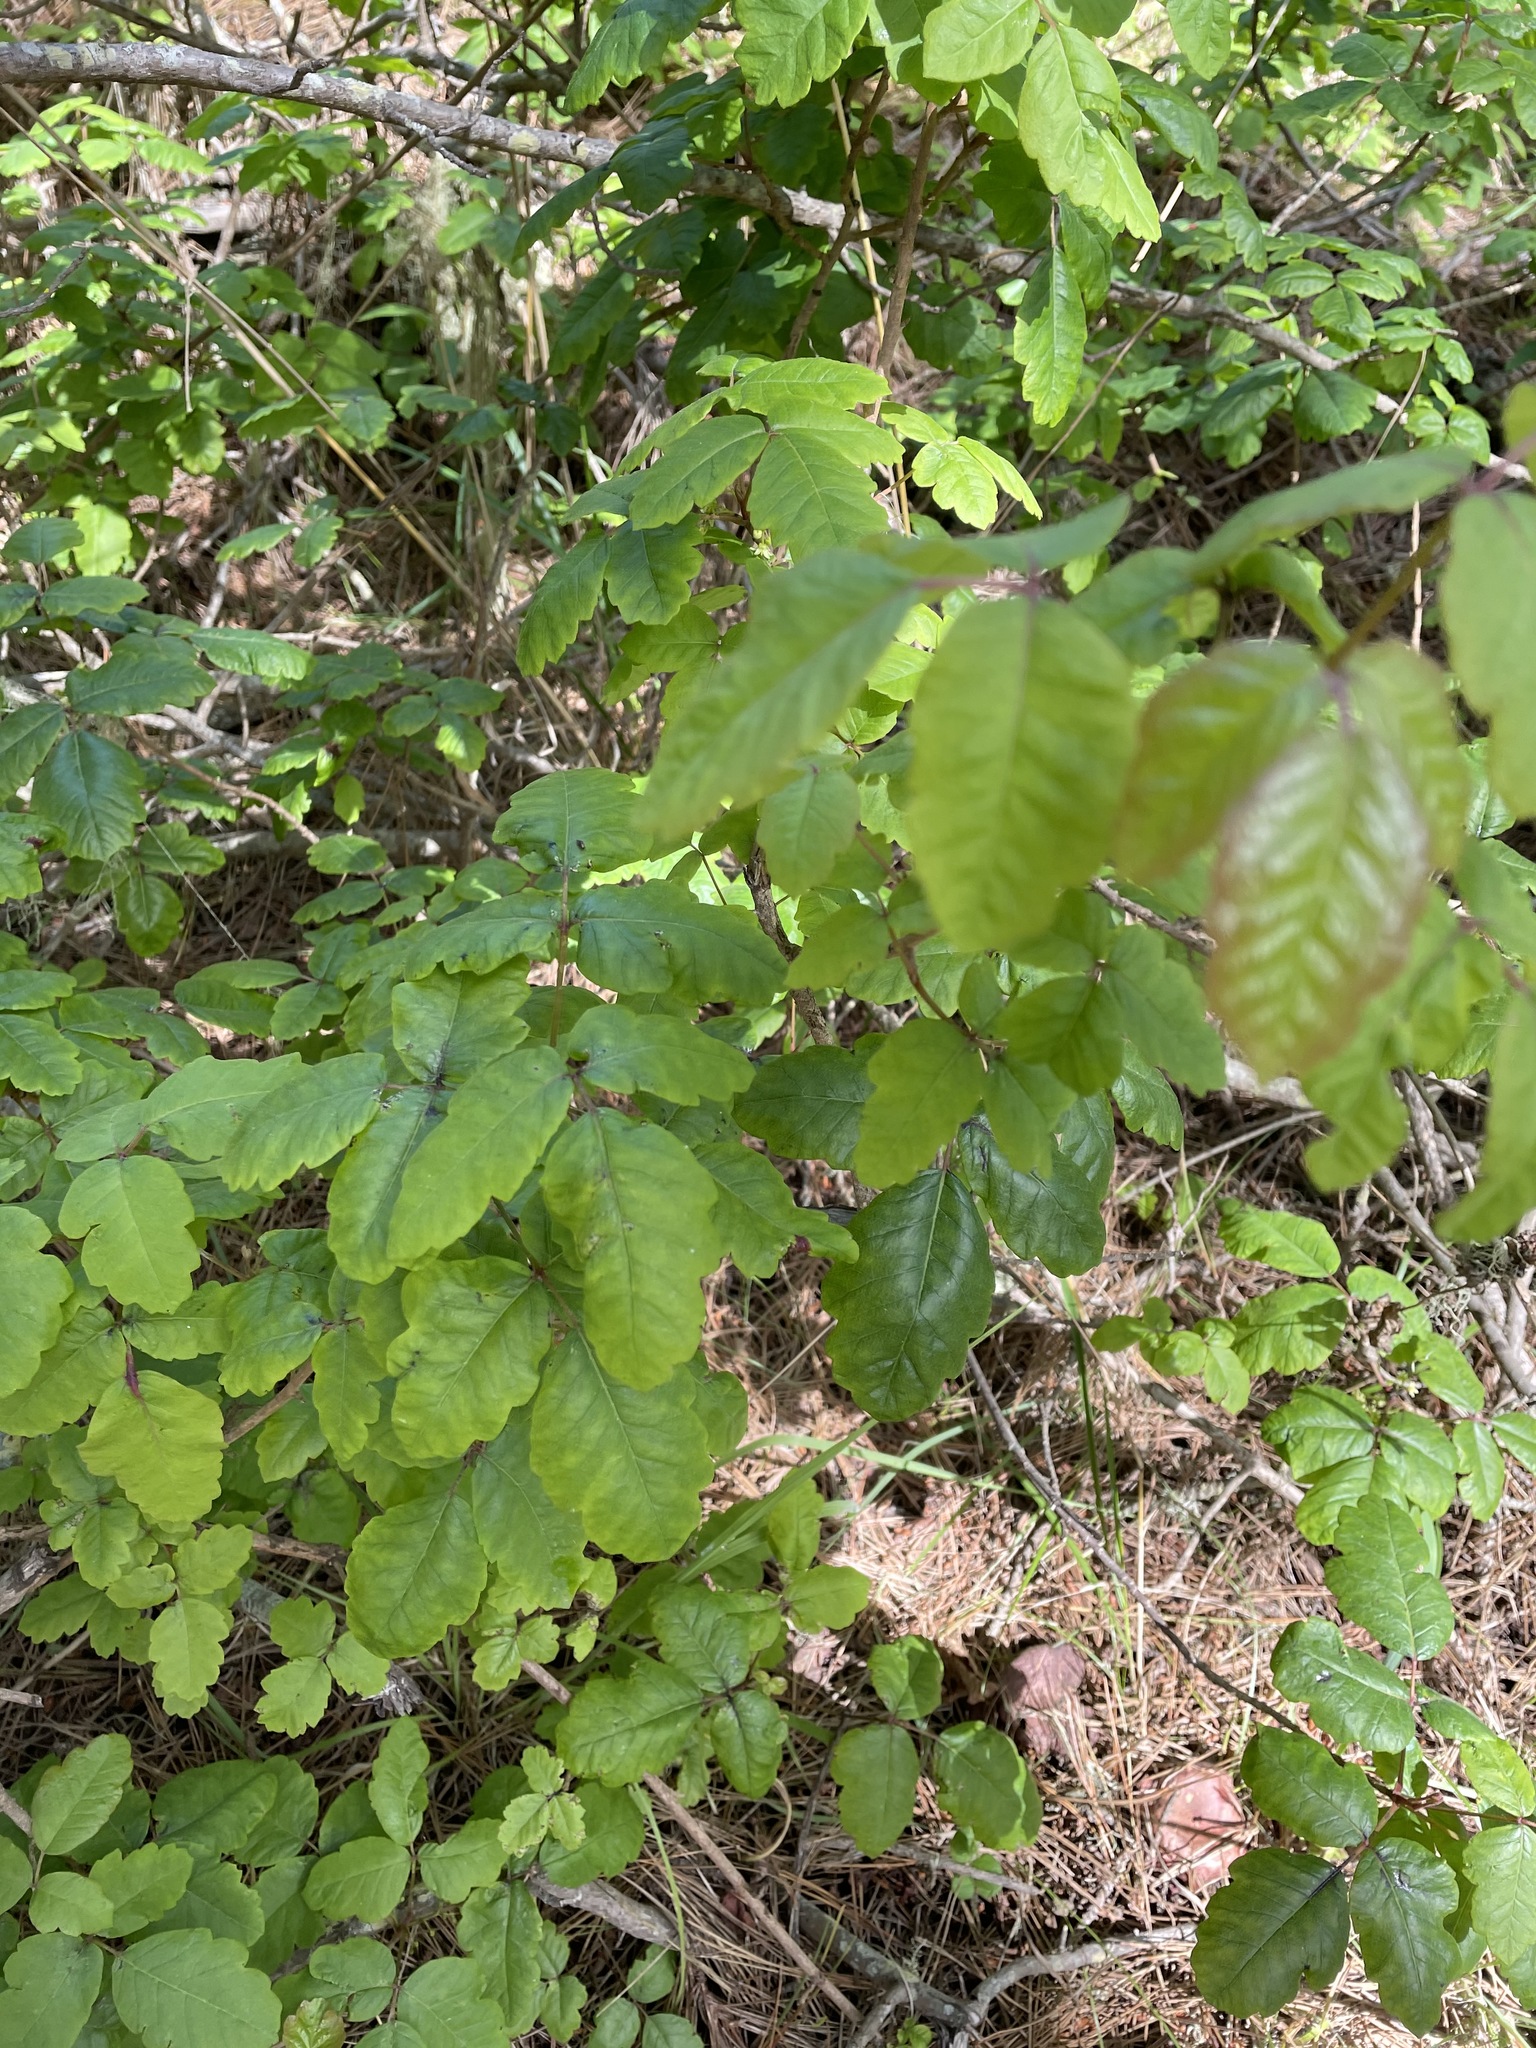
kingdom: Plantae
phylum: Tracheophyta
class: Magnoliopsida
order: Sapindales
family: Anacardiaceae
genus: Toxicodendron
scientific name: Toxicodendron diversilobum
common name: Pacific poison-oak
